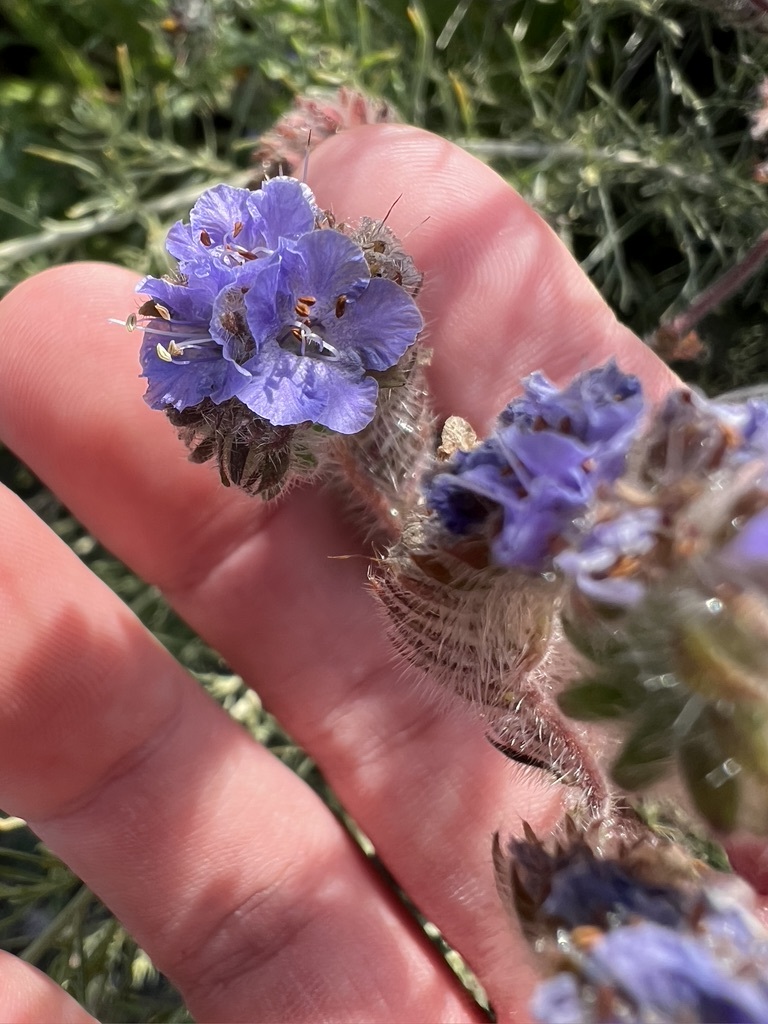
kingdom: Plantae
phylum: Tracheophyta
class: Magnoliopsida
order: Boraginales
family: Hydrophyllaceae
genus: Phacelia
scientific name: Phacelia distans
